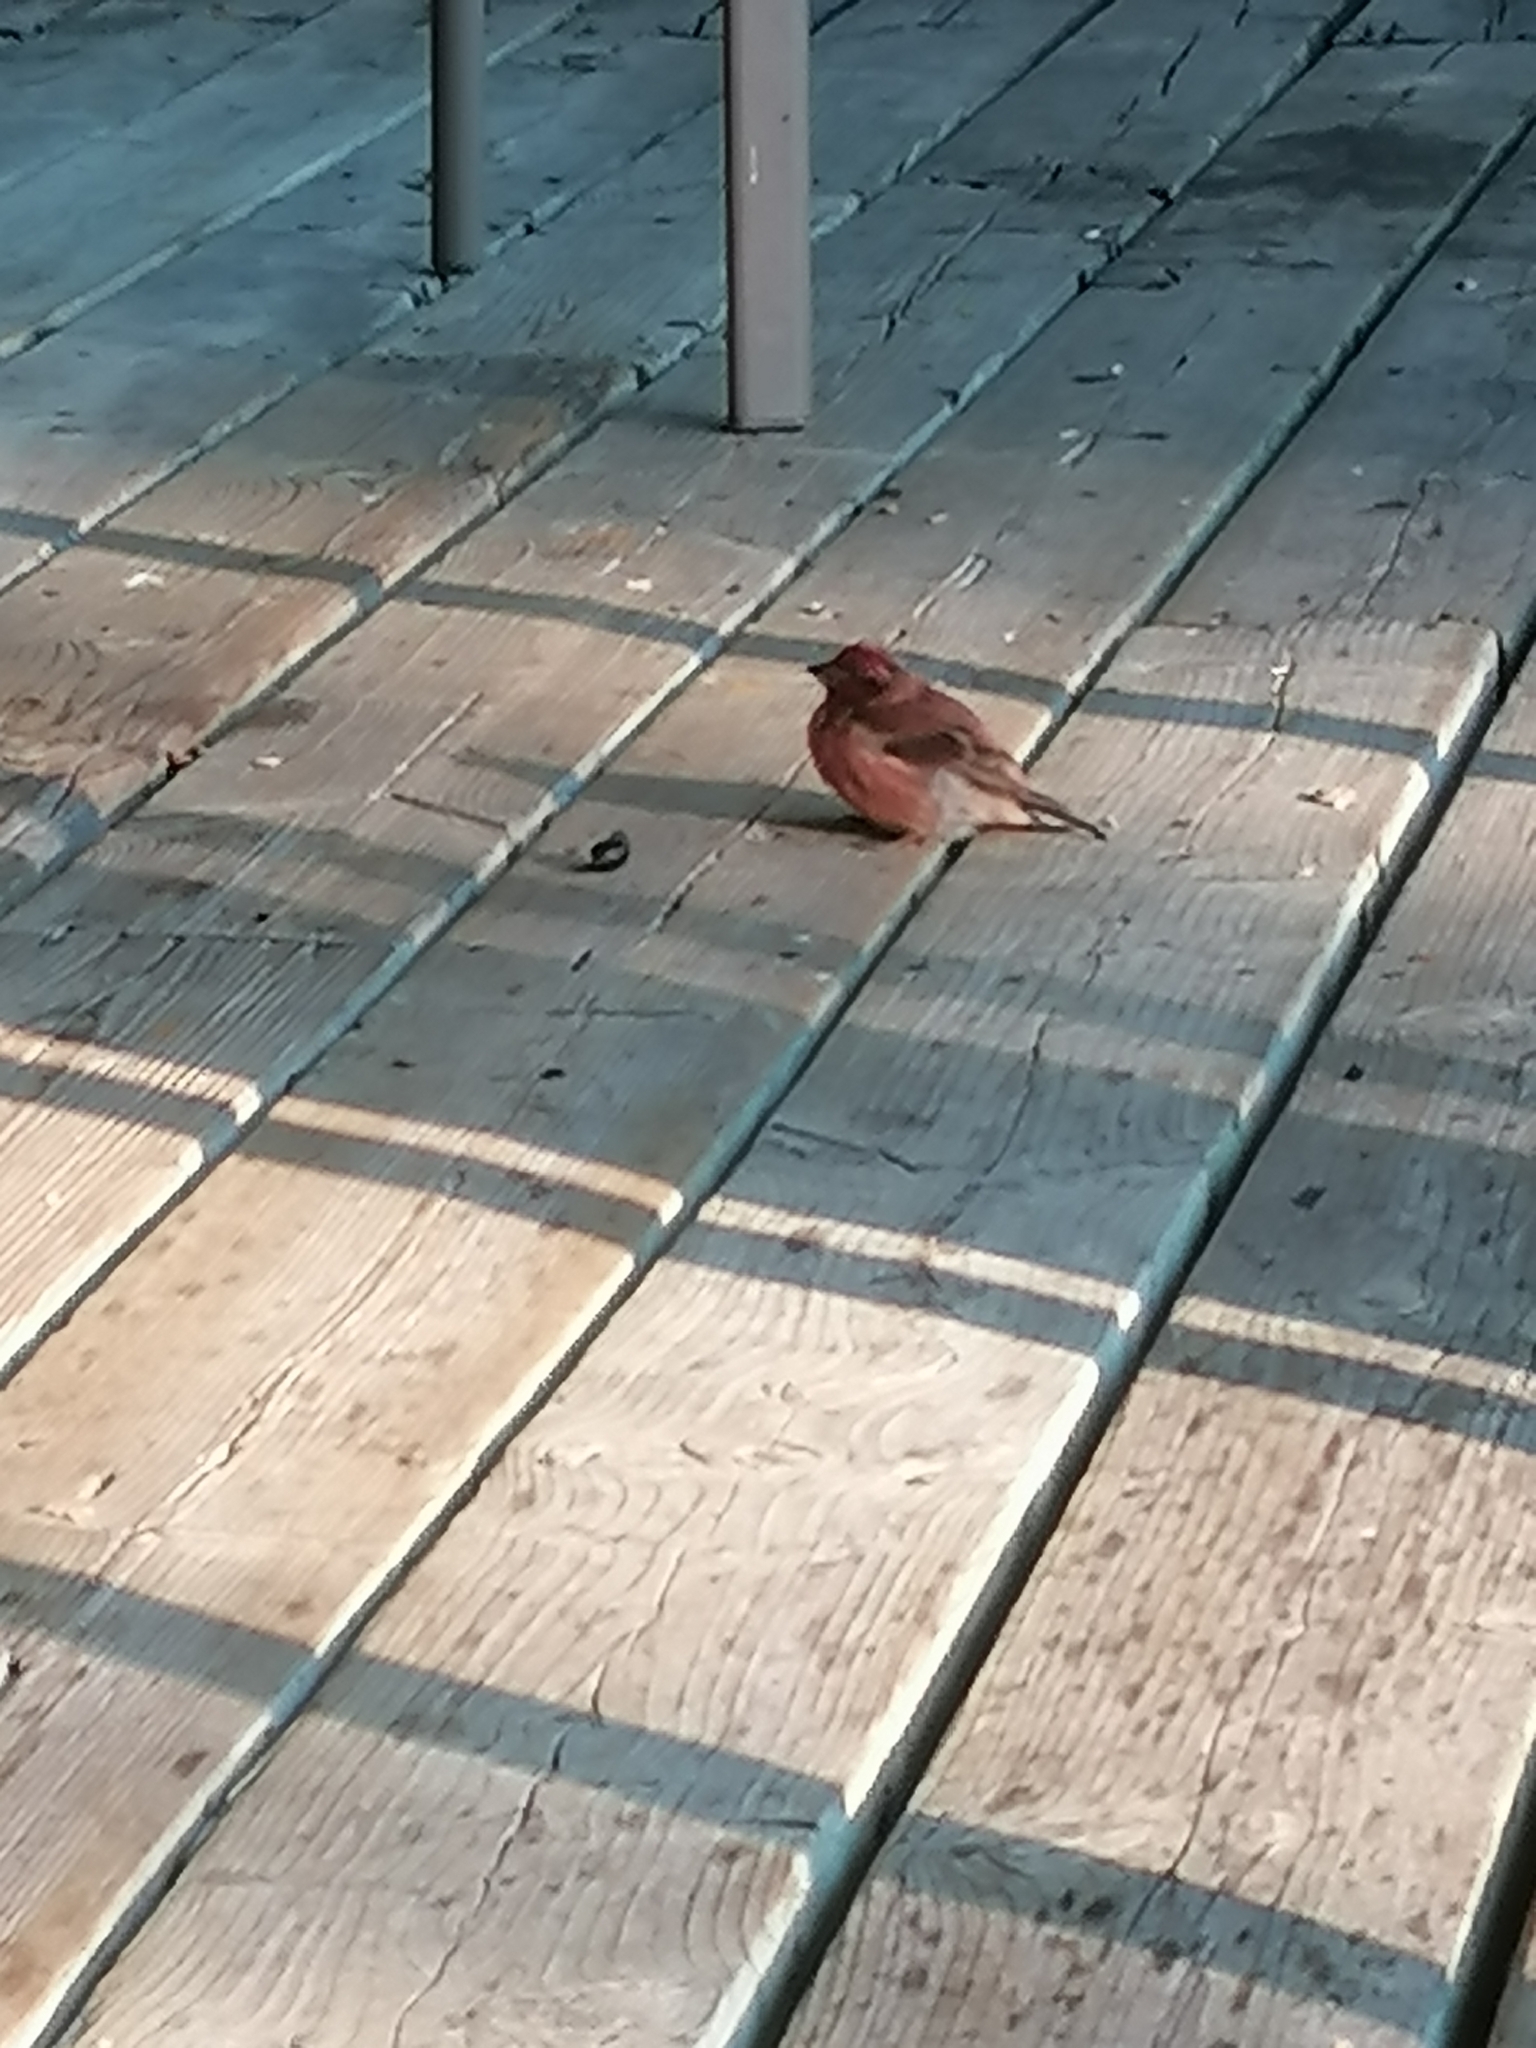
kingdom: Animalia
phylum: Chordata
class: Aves
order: Passeriformes
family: Fringillidae
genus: Haemorhous
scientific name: Haemorhous purpureus
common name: Purple finch
